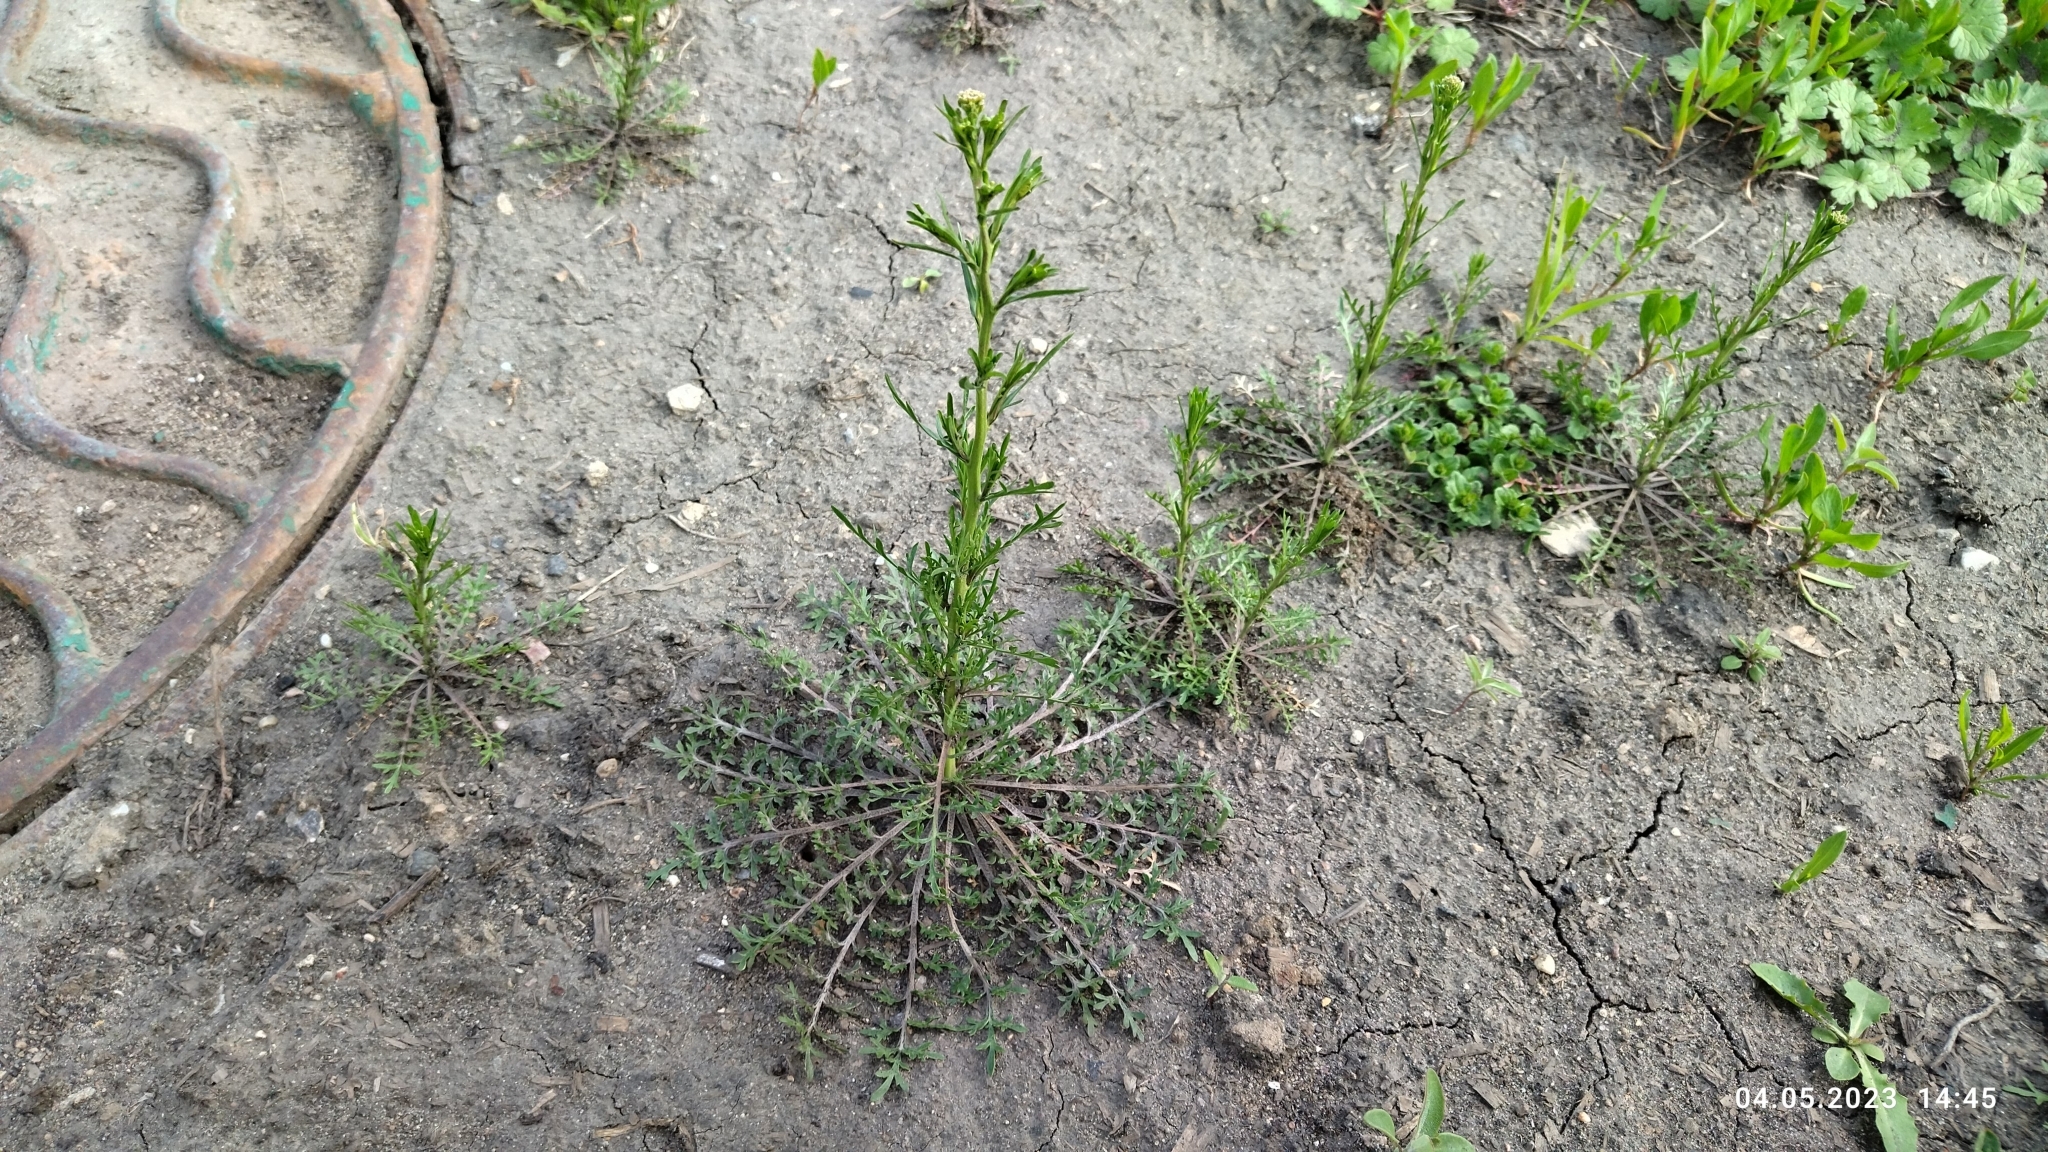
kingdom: Plantae
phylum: Tracheophyta
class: Magnoliopsida
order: Brassicales
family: Brassicaceae
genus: Lepidium
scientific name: Lepidium ruderale
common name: Narrow-leaved pepperwort
